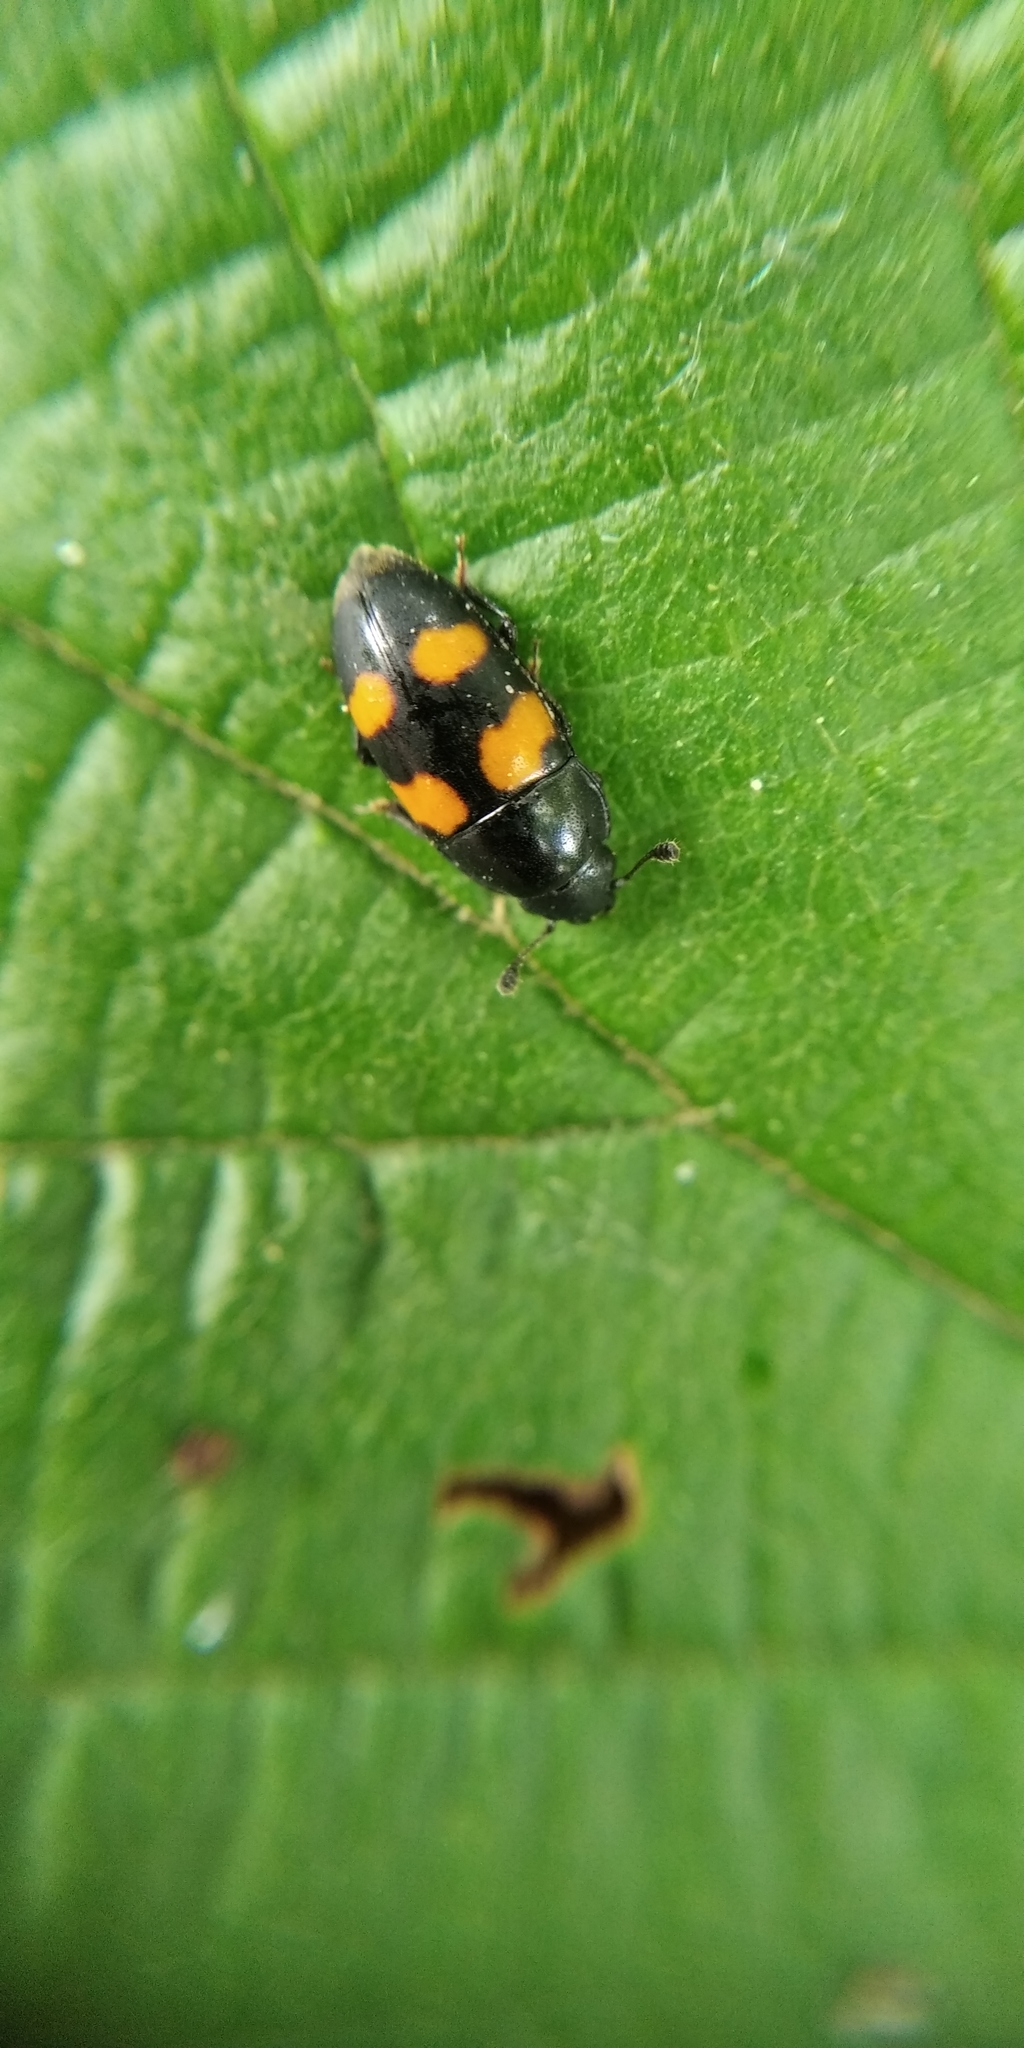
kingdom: Animalia
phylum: Arthropoda
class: Insecta
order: Coleoptera
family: Nitidulidae
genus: Glischrochilus
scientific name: Glischrochilus grandis
